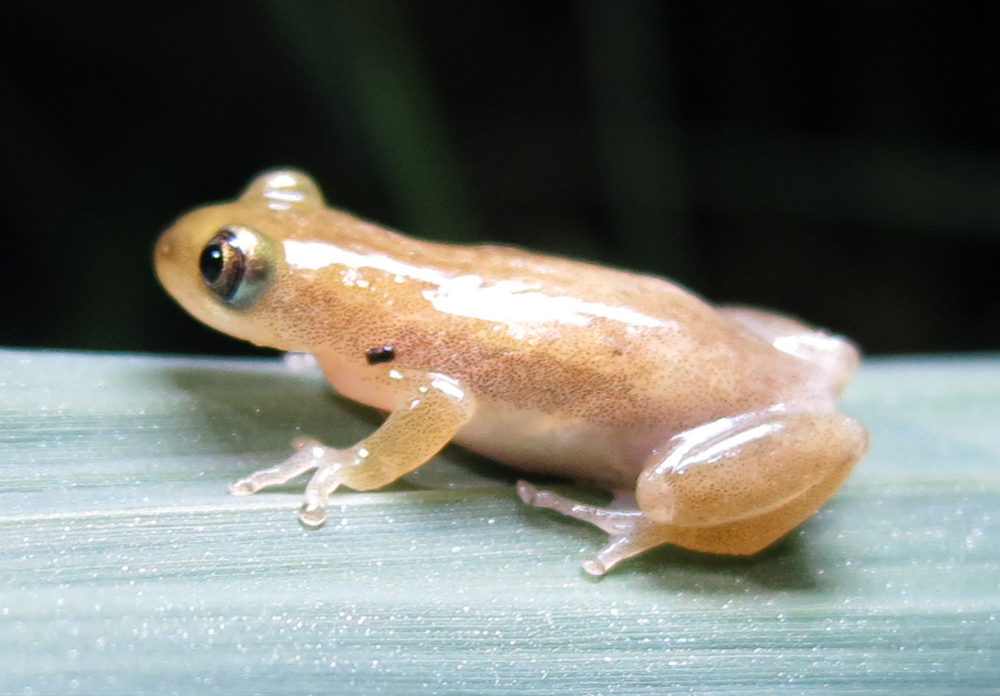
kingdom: Animalia
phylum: Chordata
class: Amphibia
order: Anura
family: Hyperoliidae
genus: Afrixalus
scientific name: Afrixalus delicatus
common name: Delicate leaf-folding frog
